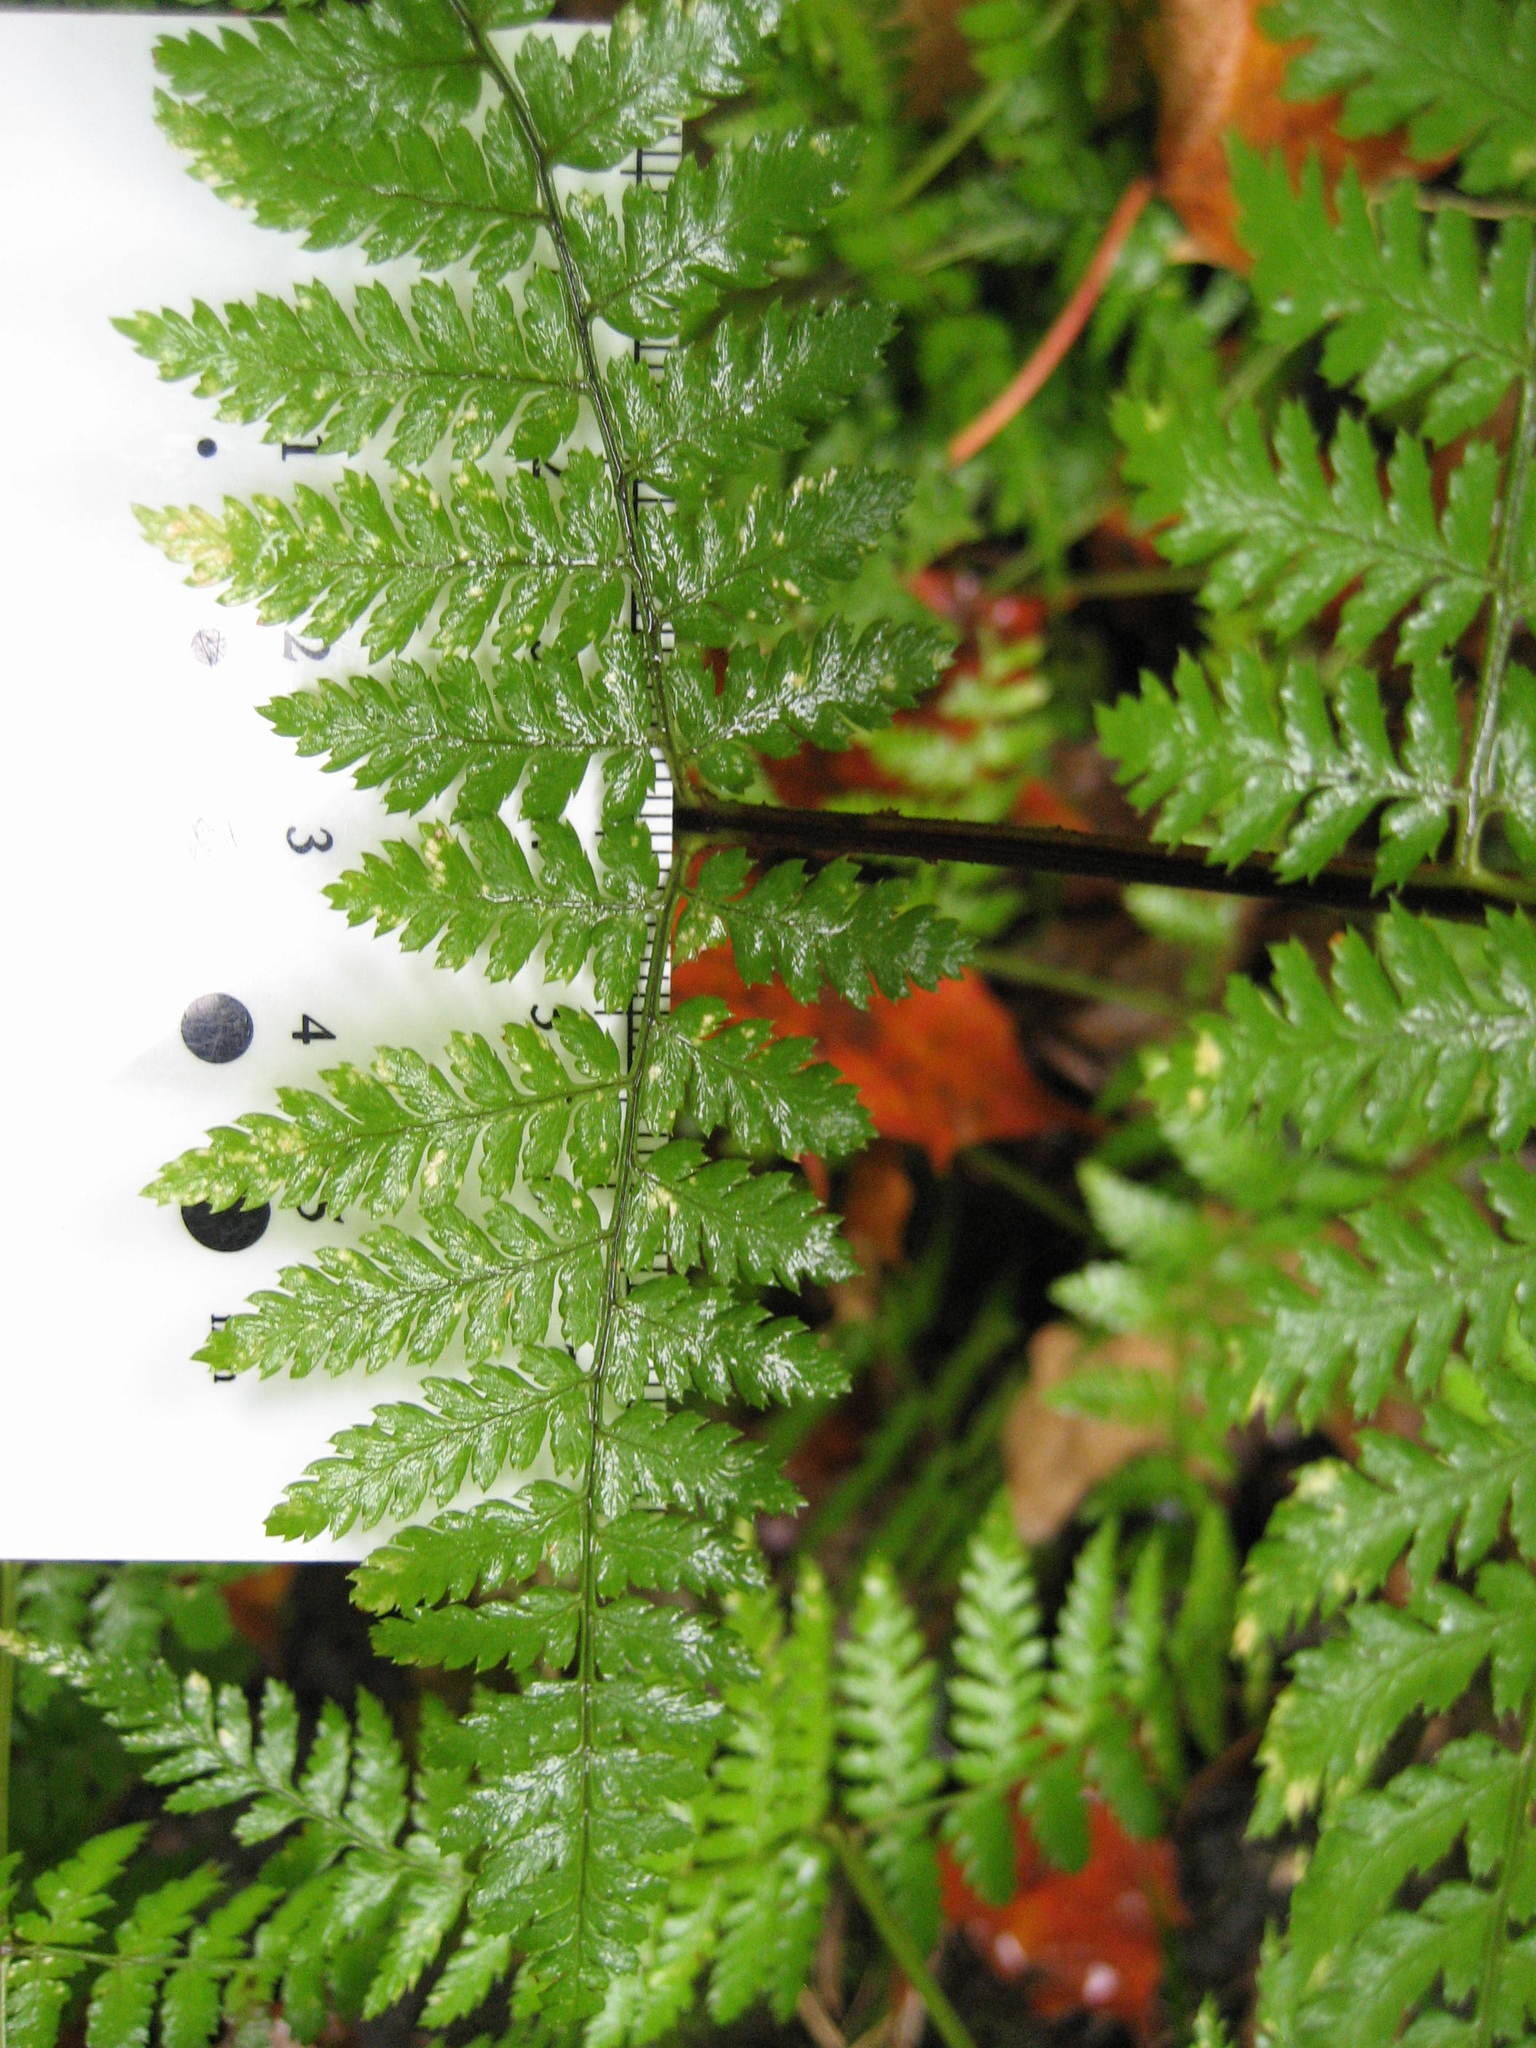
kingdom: Plantae
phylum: Tracheophyta
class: Polypodiopsida
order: Polypodiales
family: Dryopteridaceae
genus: Dryopteris
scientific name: Dryopteris intermedia
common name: Evergreen wood fern
